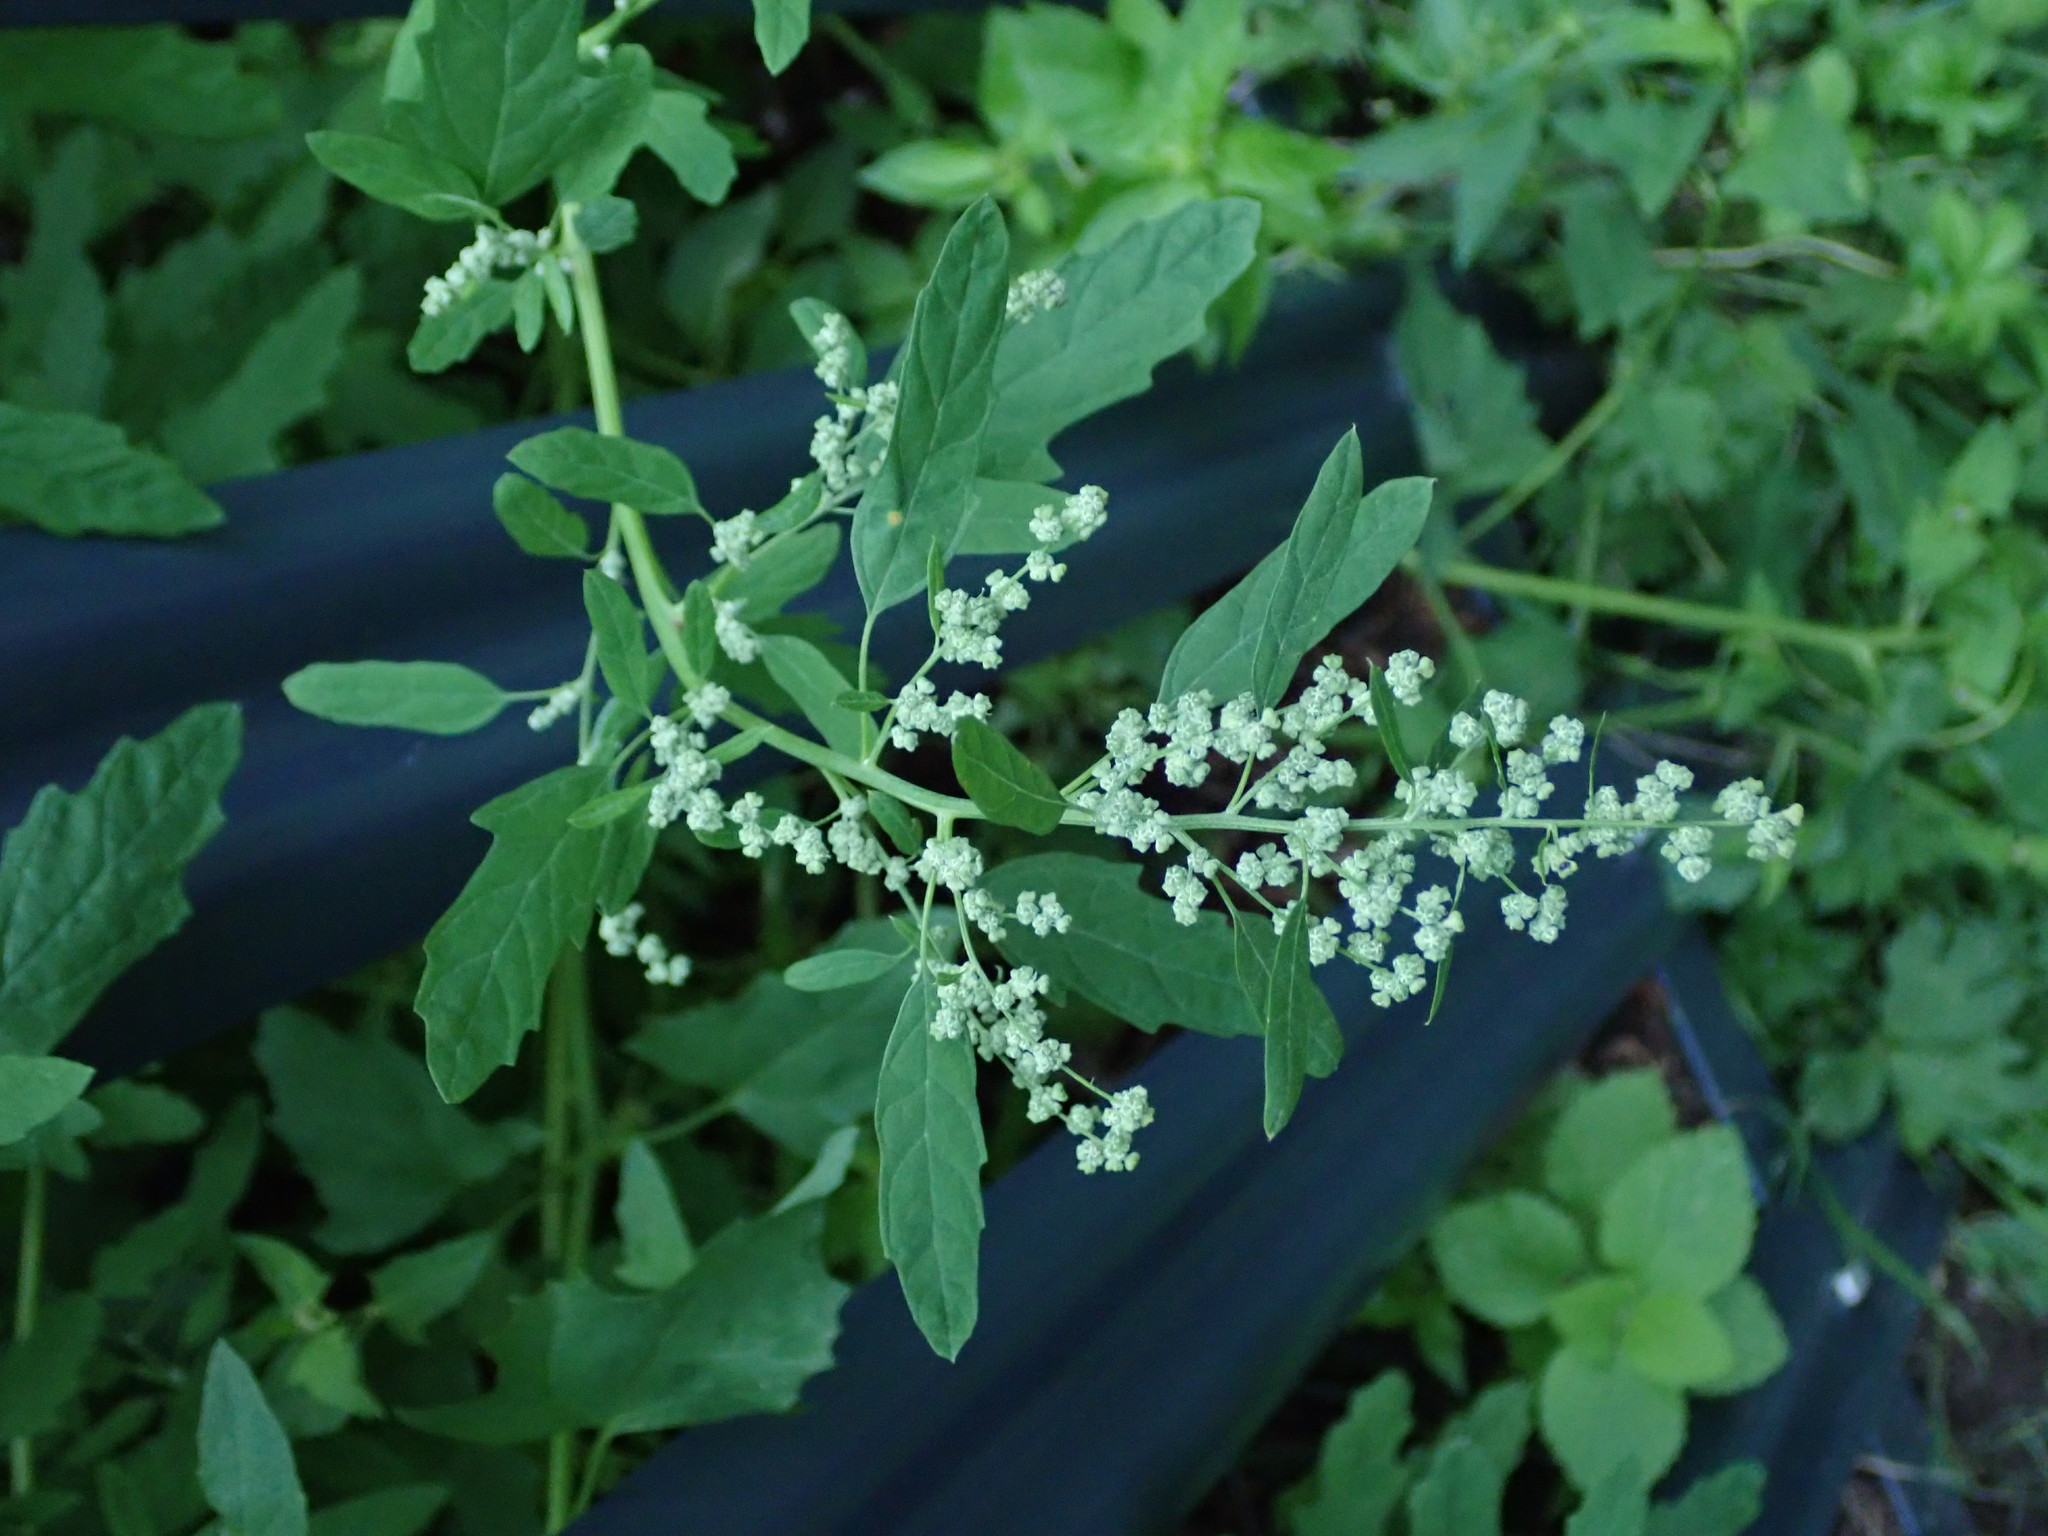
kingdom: Plantae
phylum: Tracheophyta
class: Magnoliopsida
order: Caryophyllales
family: Amaranthaceae
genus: Chenopodium
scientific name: Chenopodium album
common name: Fat-hen
